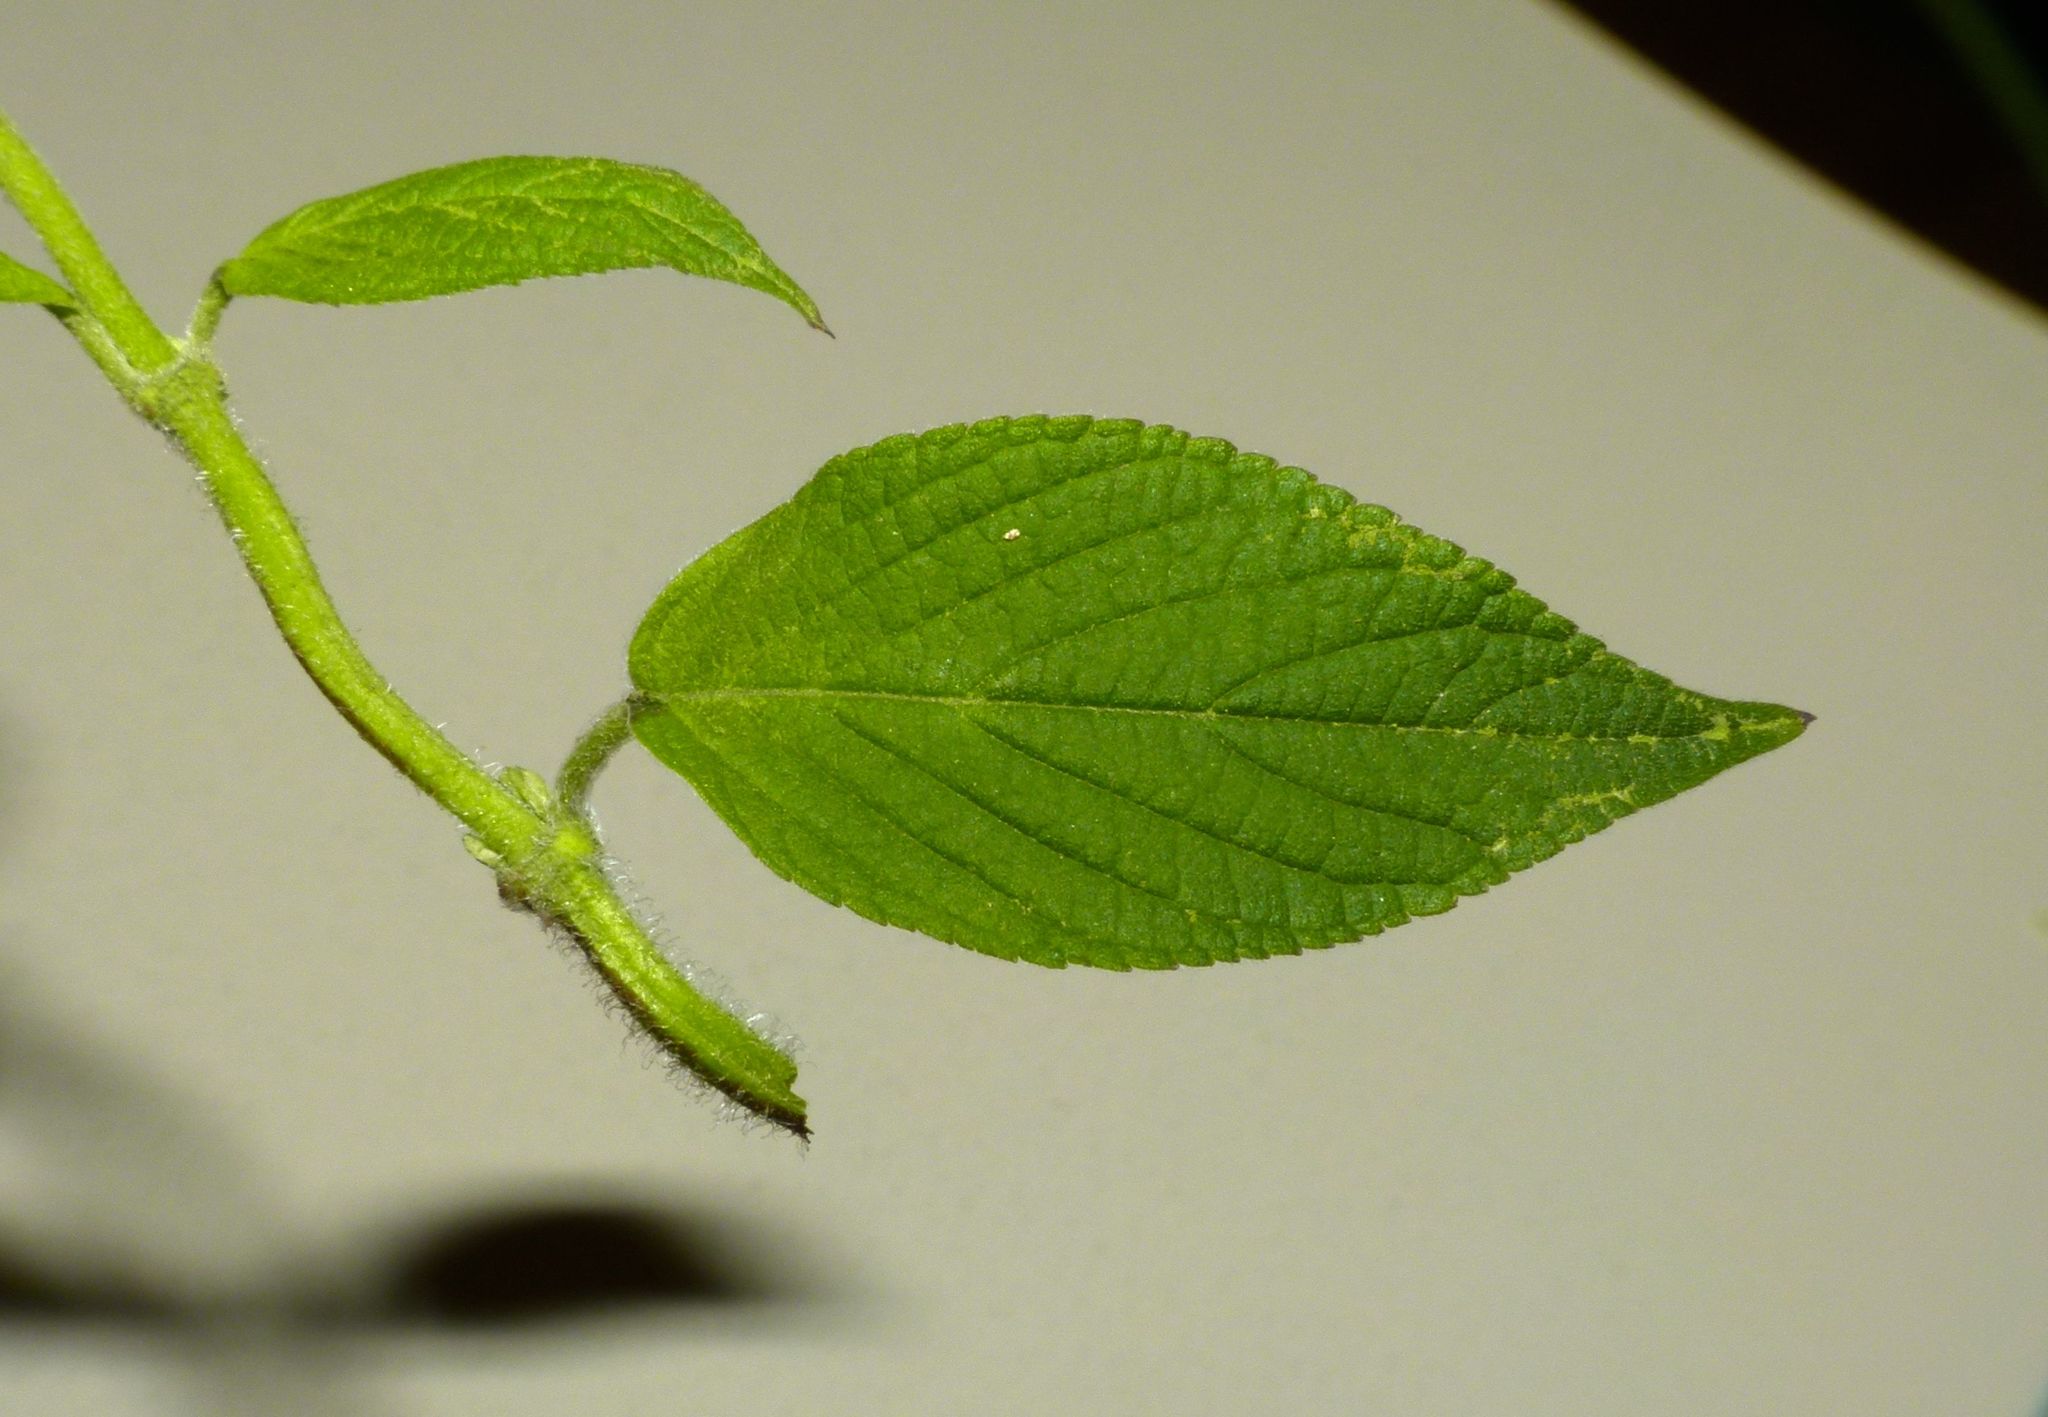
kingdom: Plantae
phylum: Tracheophyta
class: Magnoliopsida
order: Lamiales
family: Lamiaceae
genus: Salvia
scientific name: Salvia elegans
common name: Pineapple sage
